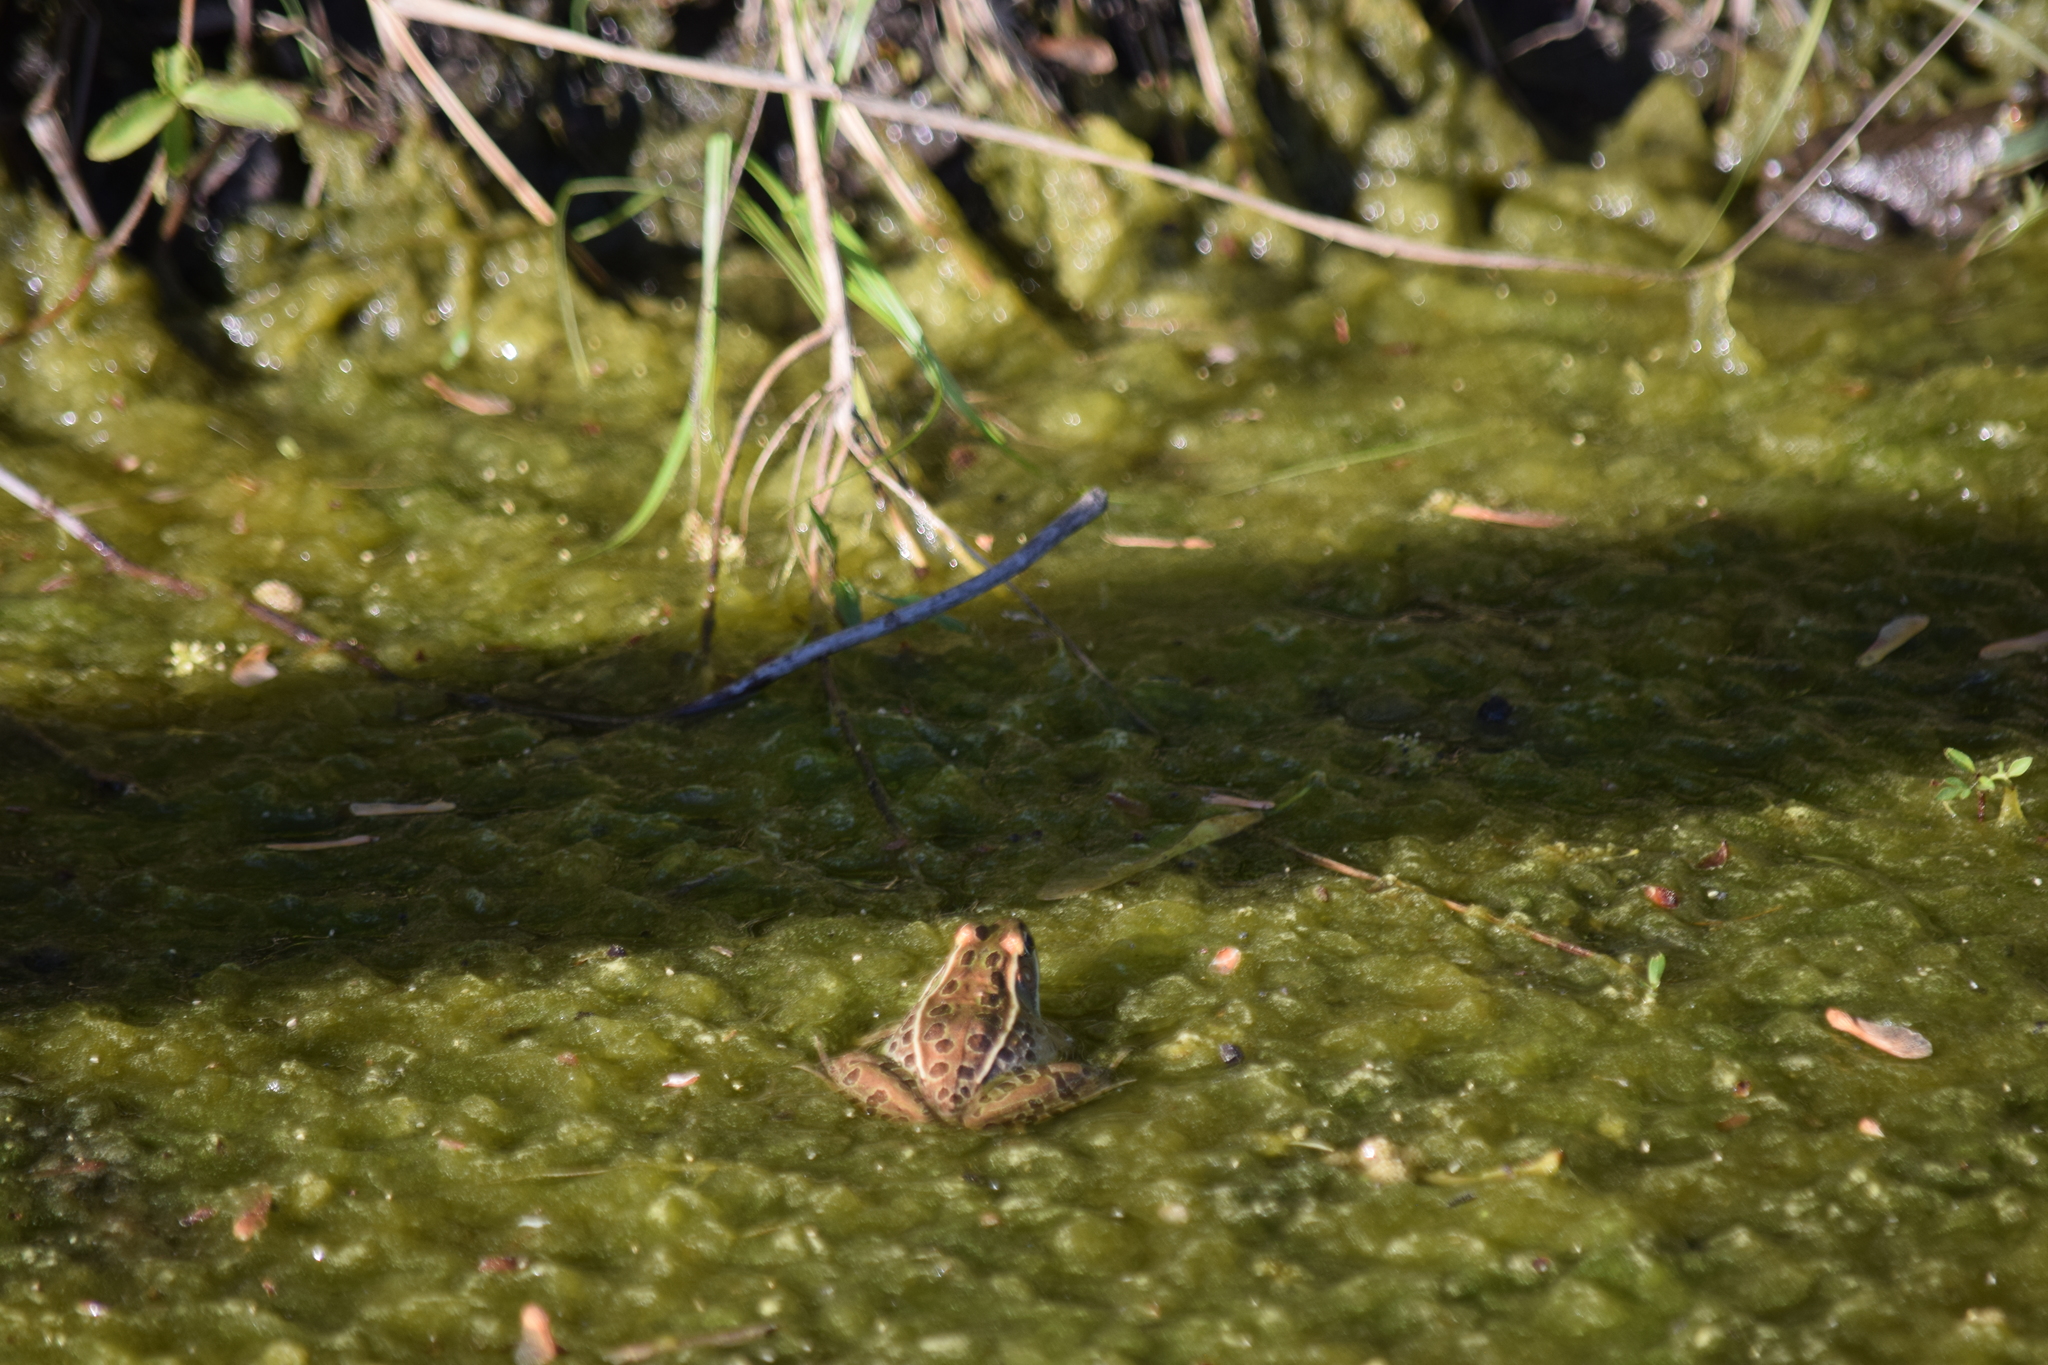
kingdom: Animalia
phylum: Chordata
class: Amphibia
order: Anura
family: Ranidae
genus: Lithobates
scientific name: Lithobates sphenocephalus
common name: Southern leopard frog
